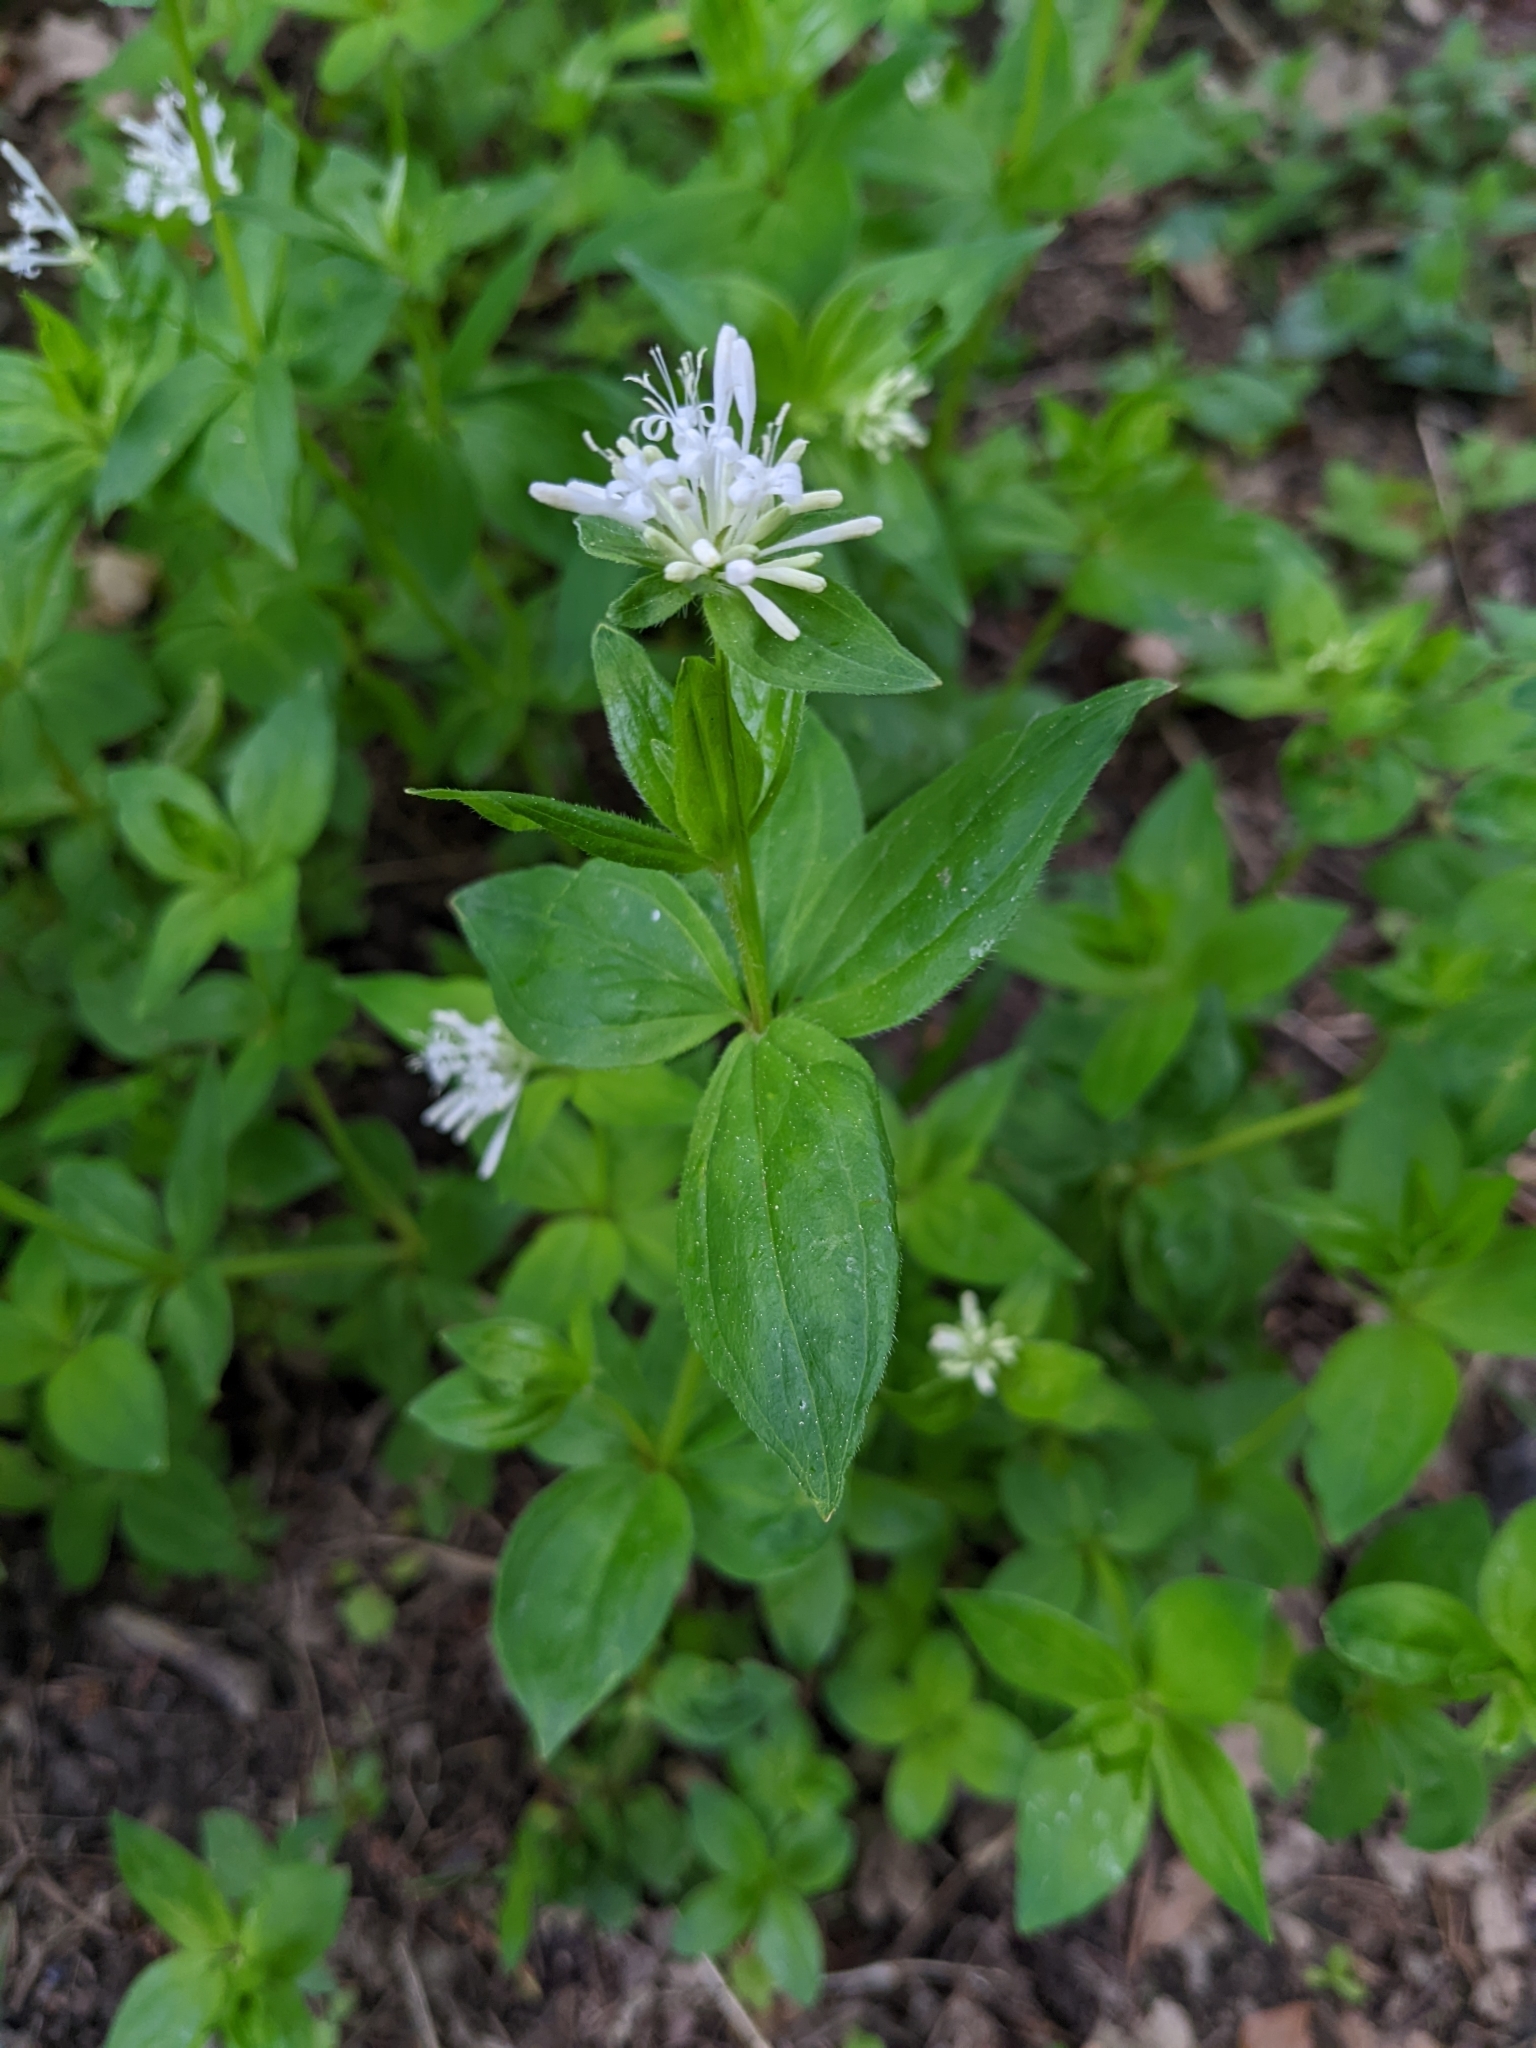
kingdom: Plantae
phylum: Tracheophyta
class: Magnoliopsida
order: Gentianales
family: Rubiaceae
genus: Asperula
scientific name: Asperula taurina
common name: Pink woodruff
